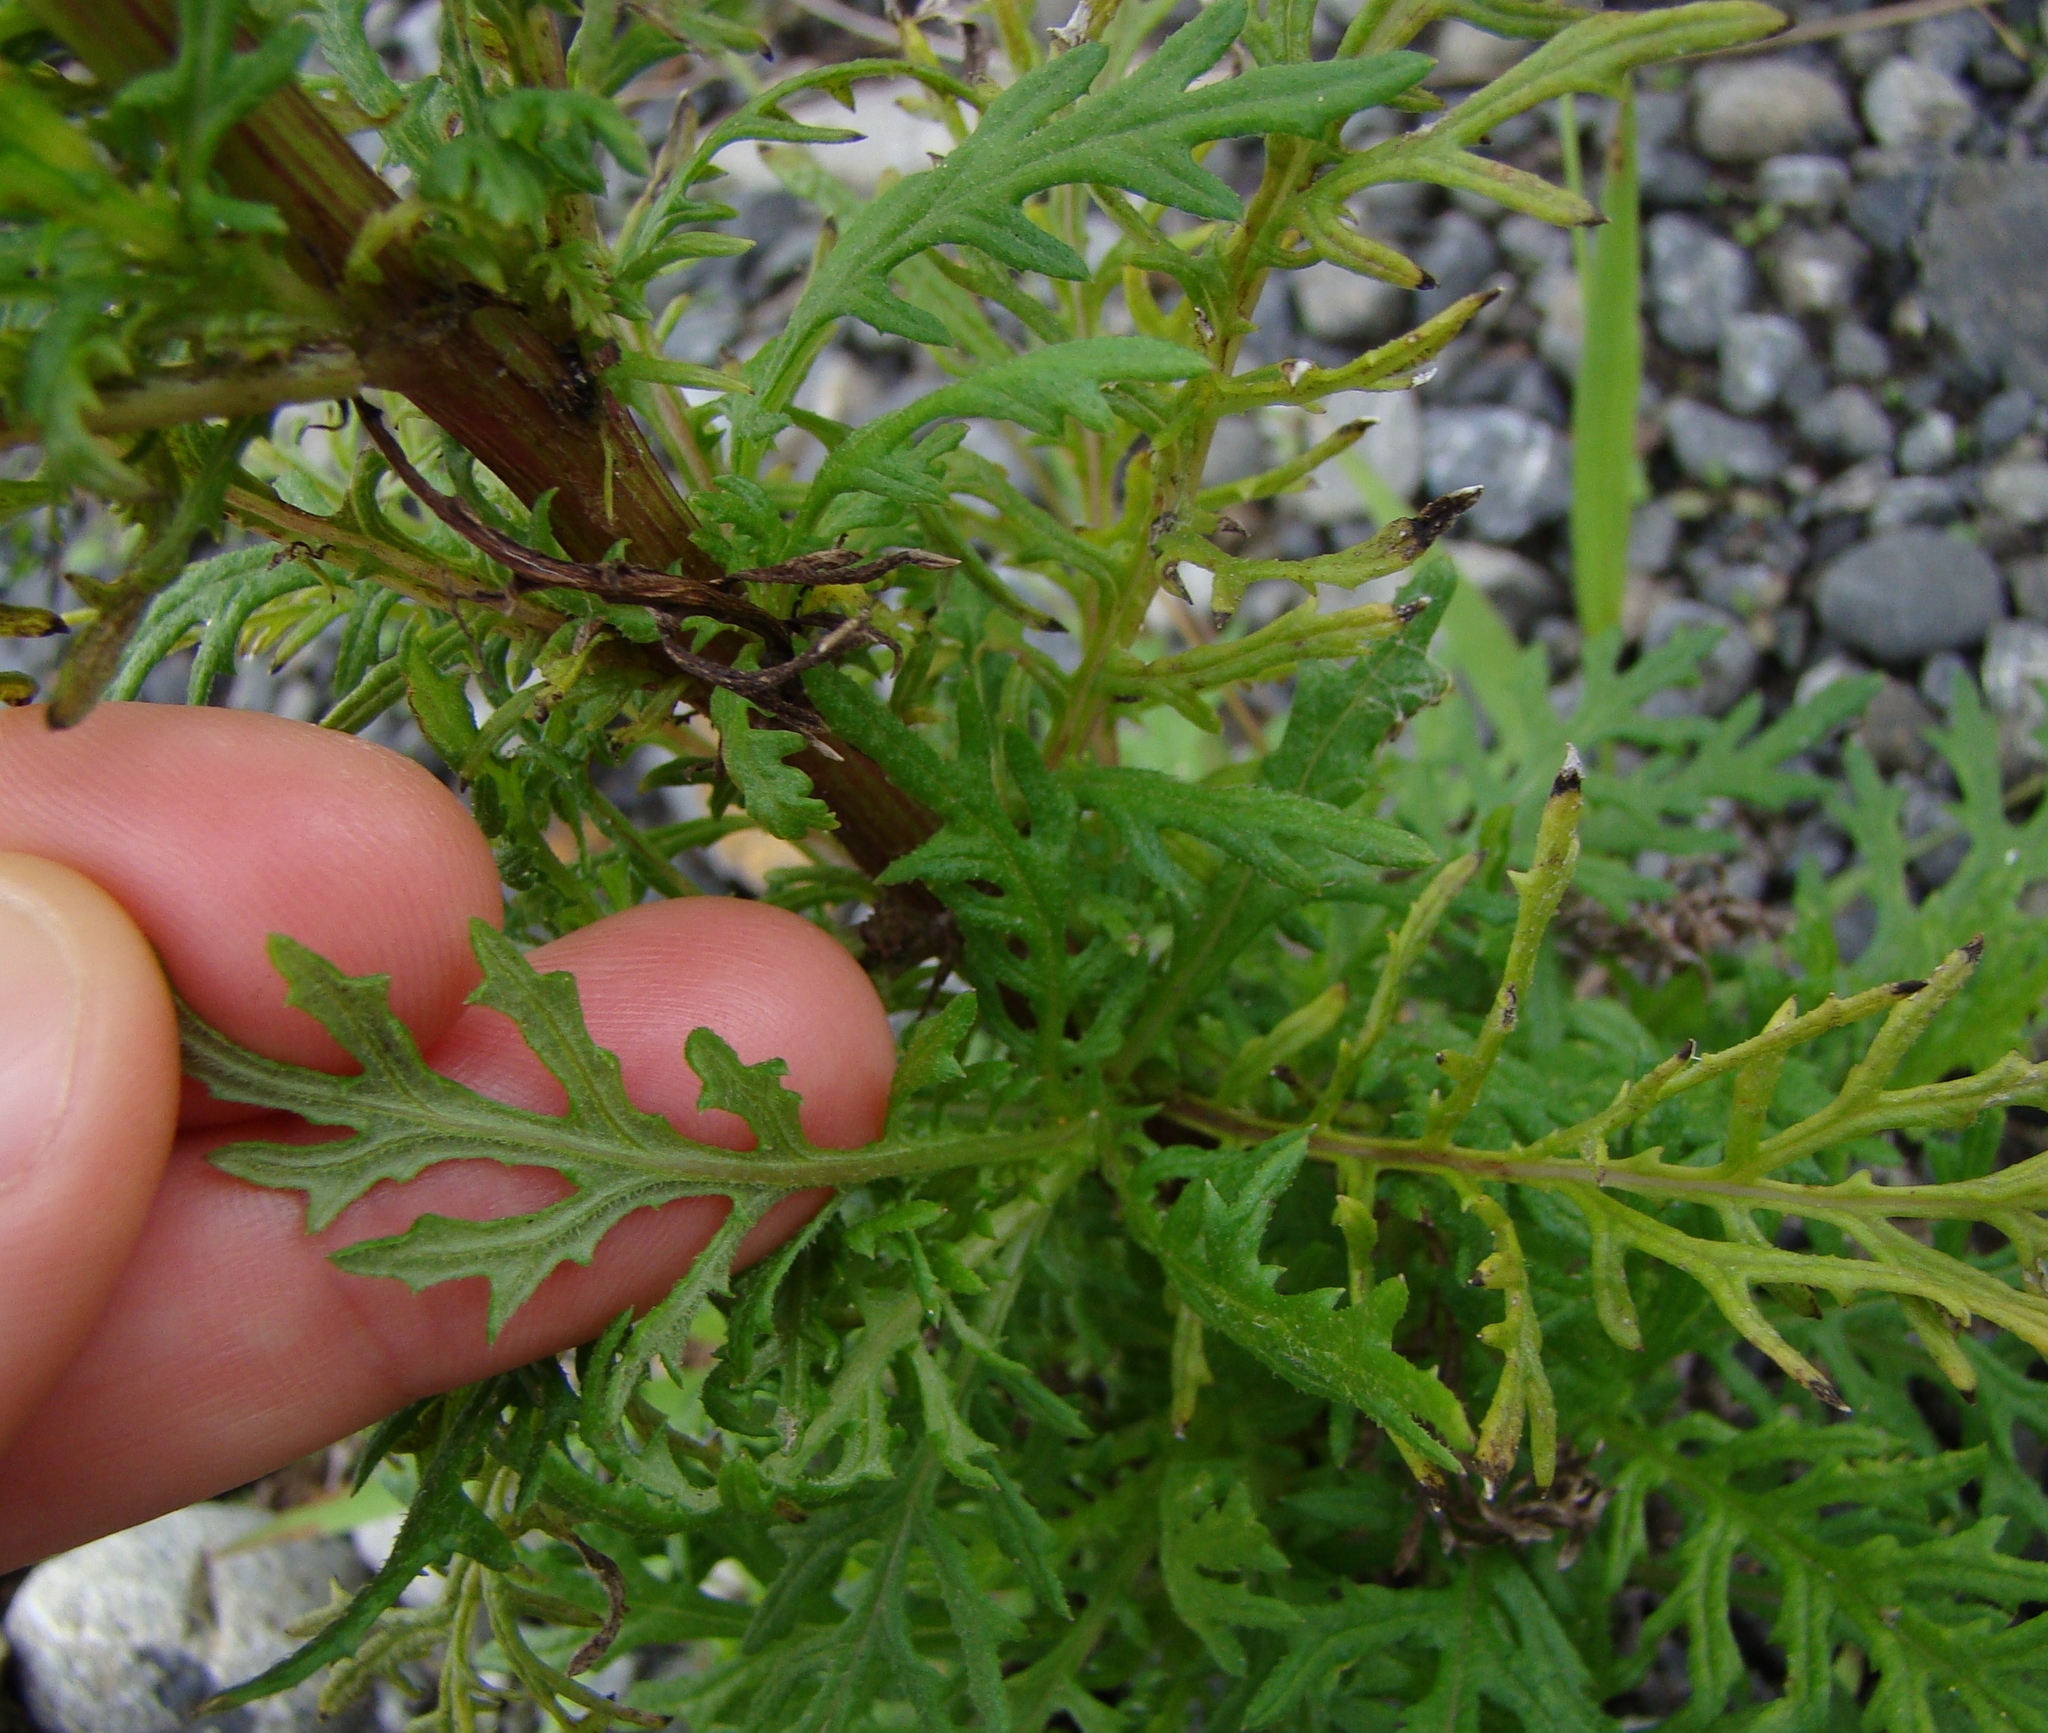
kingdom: Plantae
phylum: Tracheophyta
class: Magnoliopsida
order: Asterales
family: Asteraceae
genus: Senecio
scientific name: Senecio bipinnatisectus
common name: Australian fireweed
